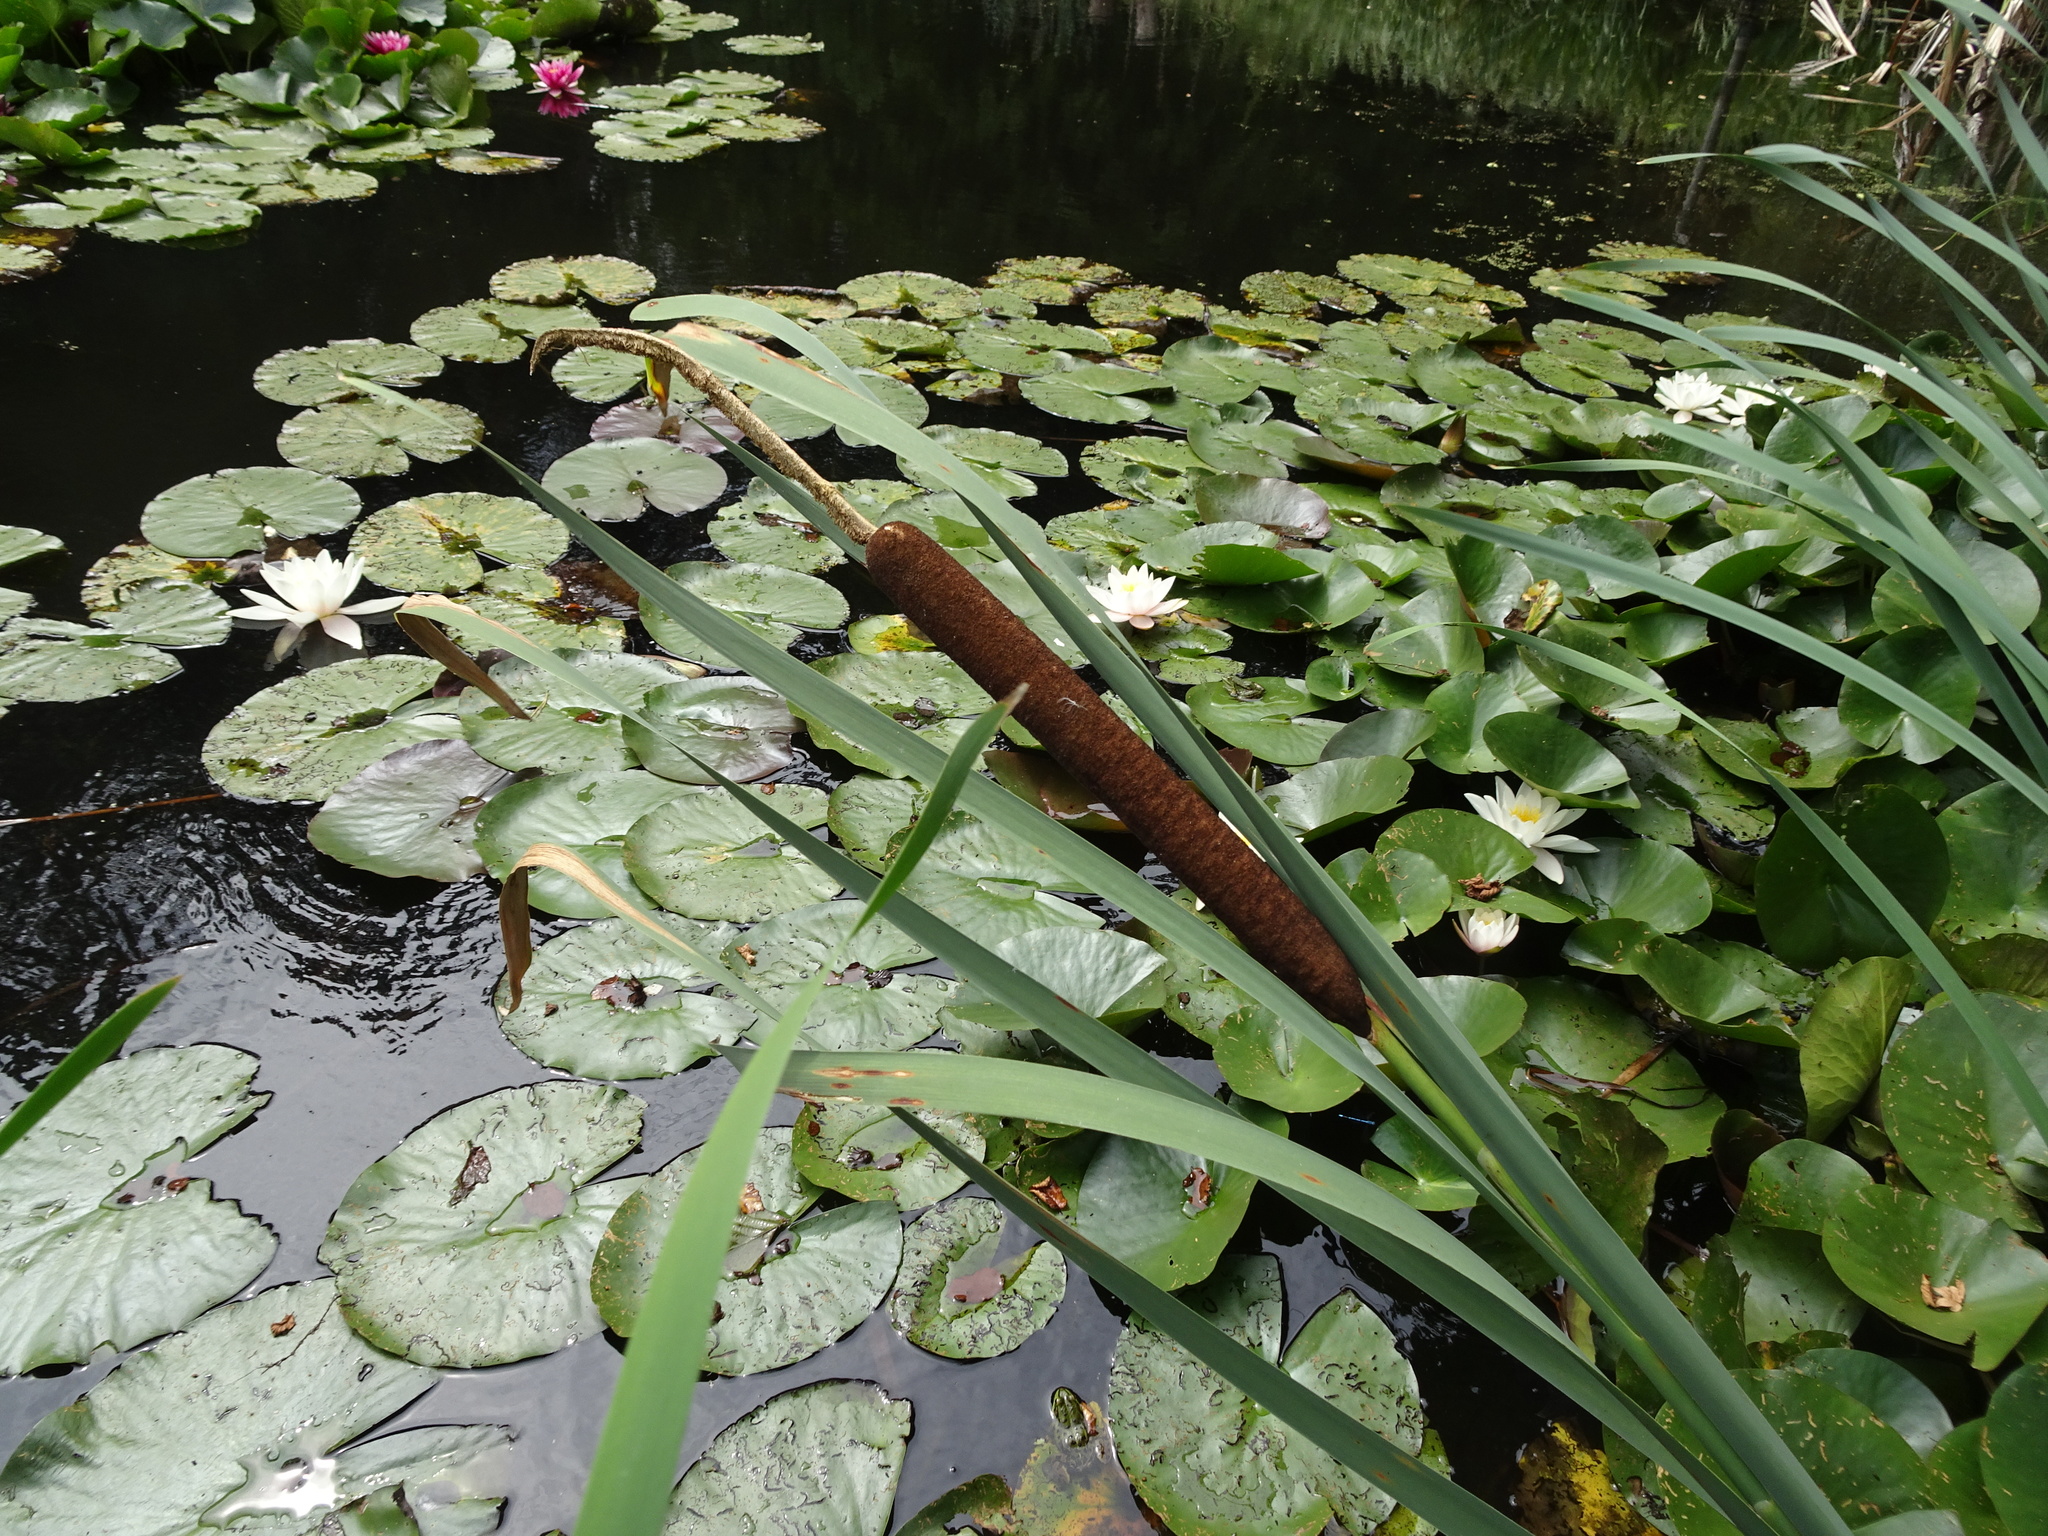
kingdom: Plantae
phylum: Tracheophyta
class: Liliopsida
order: Poales
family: Typhaceae
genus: Typha
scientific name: Typha latifolia
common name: Broadleaf cattail
